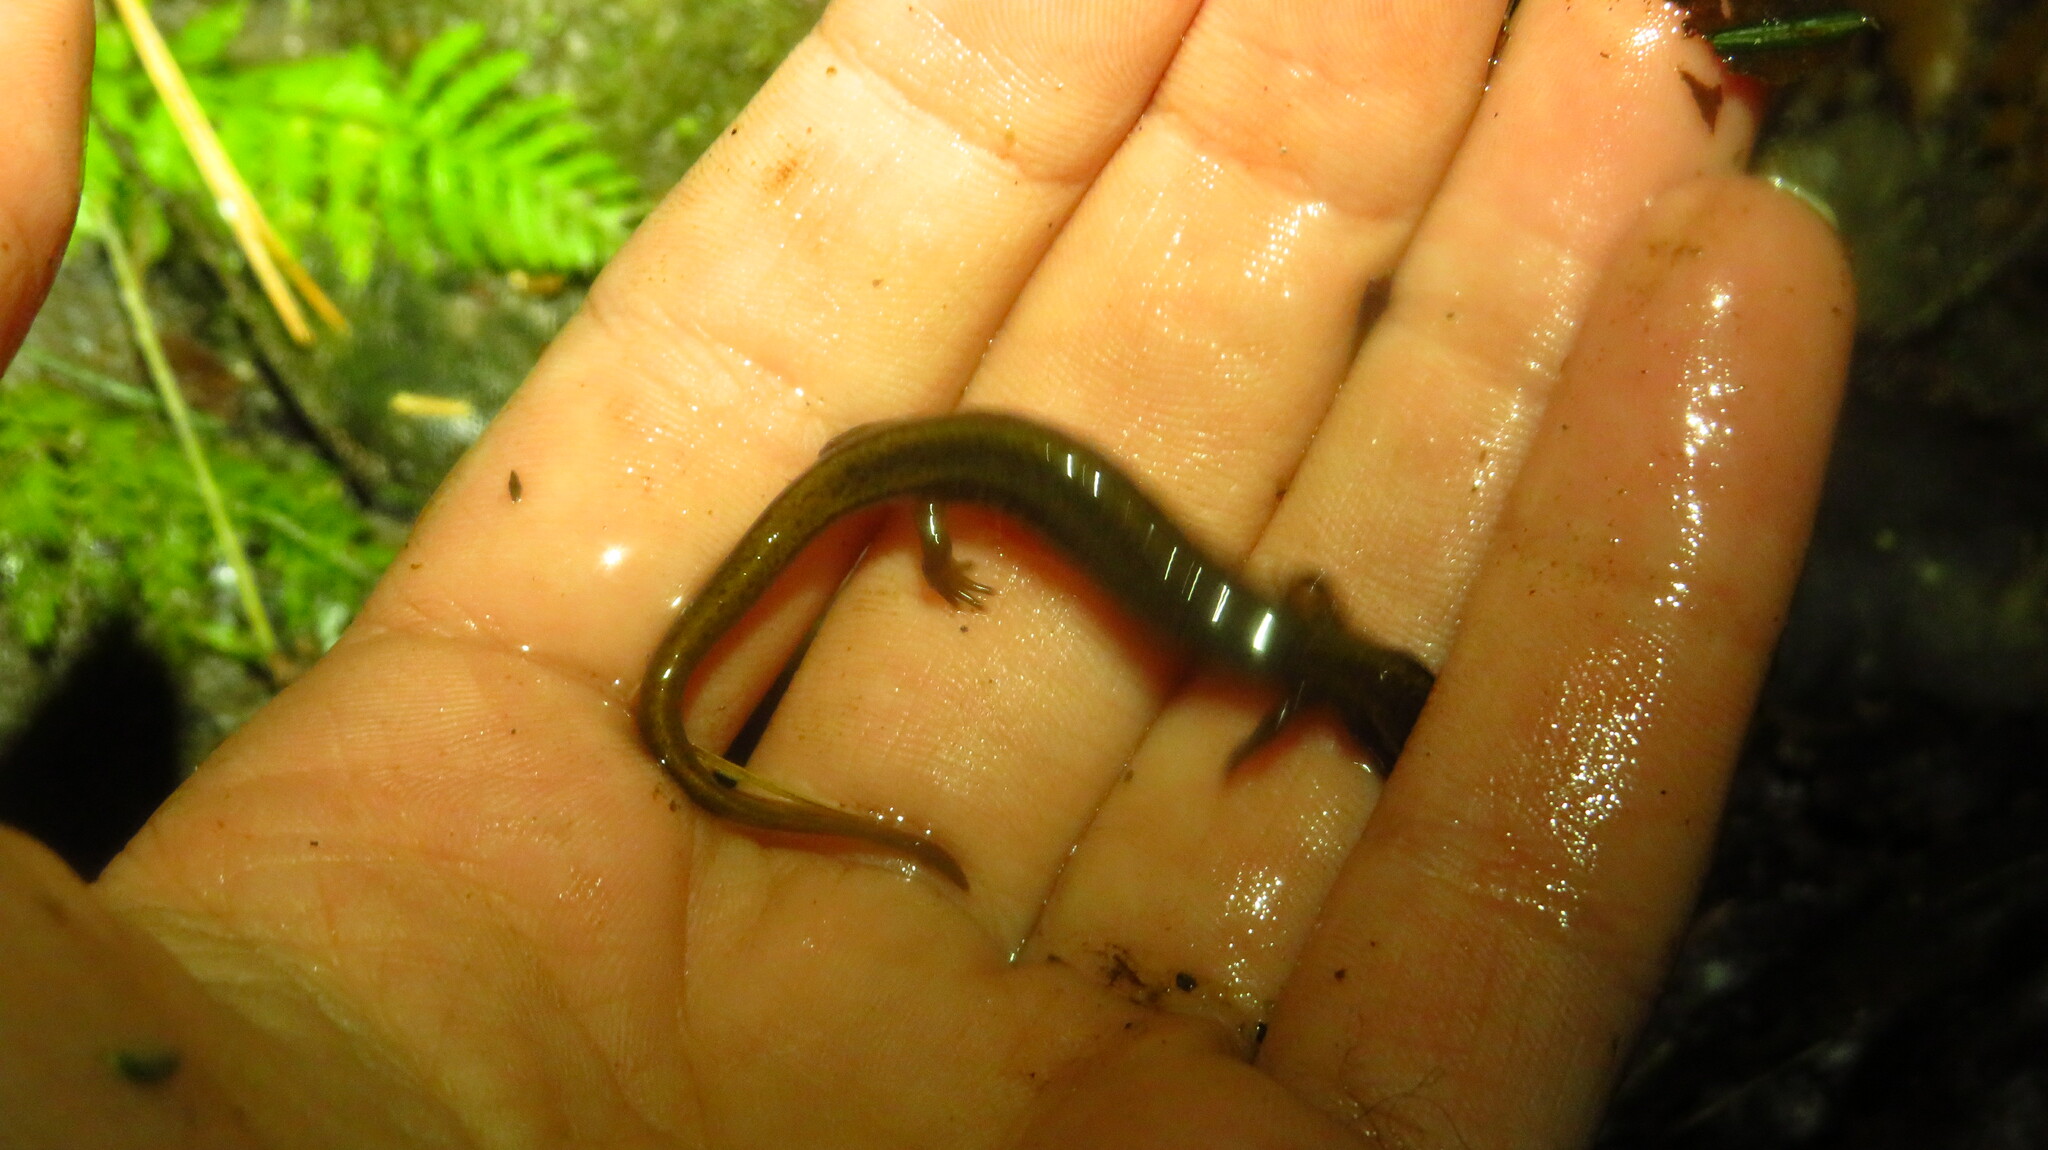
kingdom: Animalia
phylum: Chordata
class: Amphibia
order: Caudata
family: Plethodontidae
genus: Eurycea
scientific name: Eurycea bislineata
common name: Northern two-lined salamander
